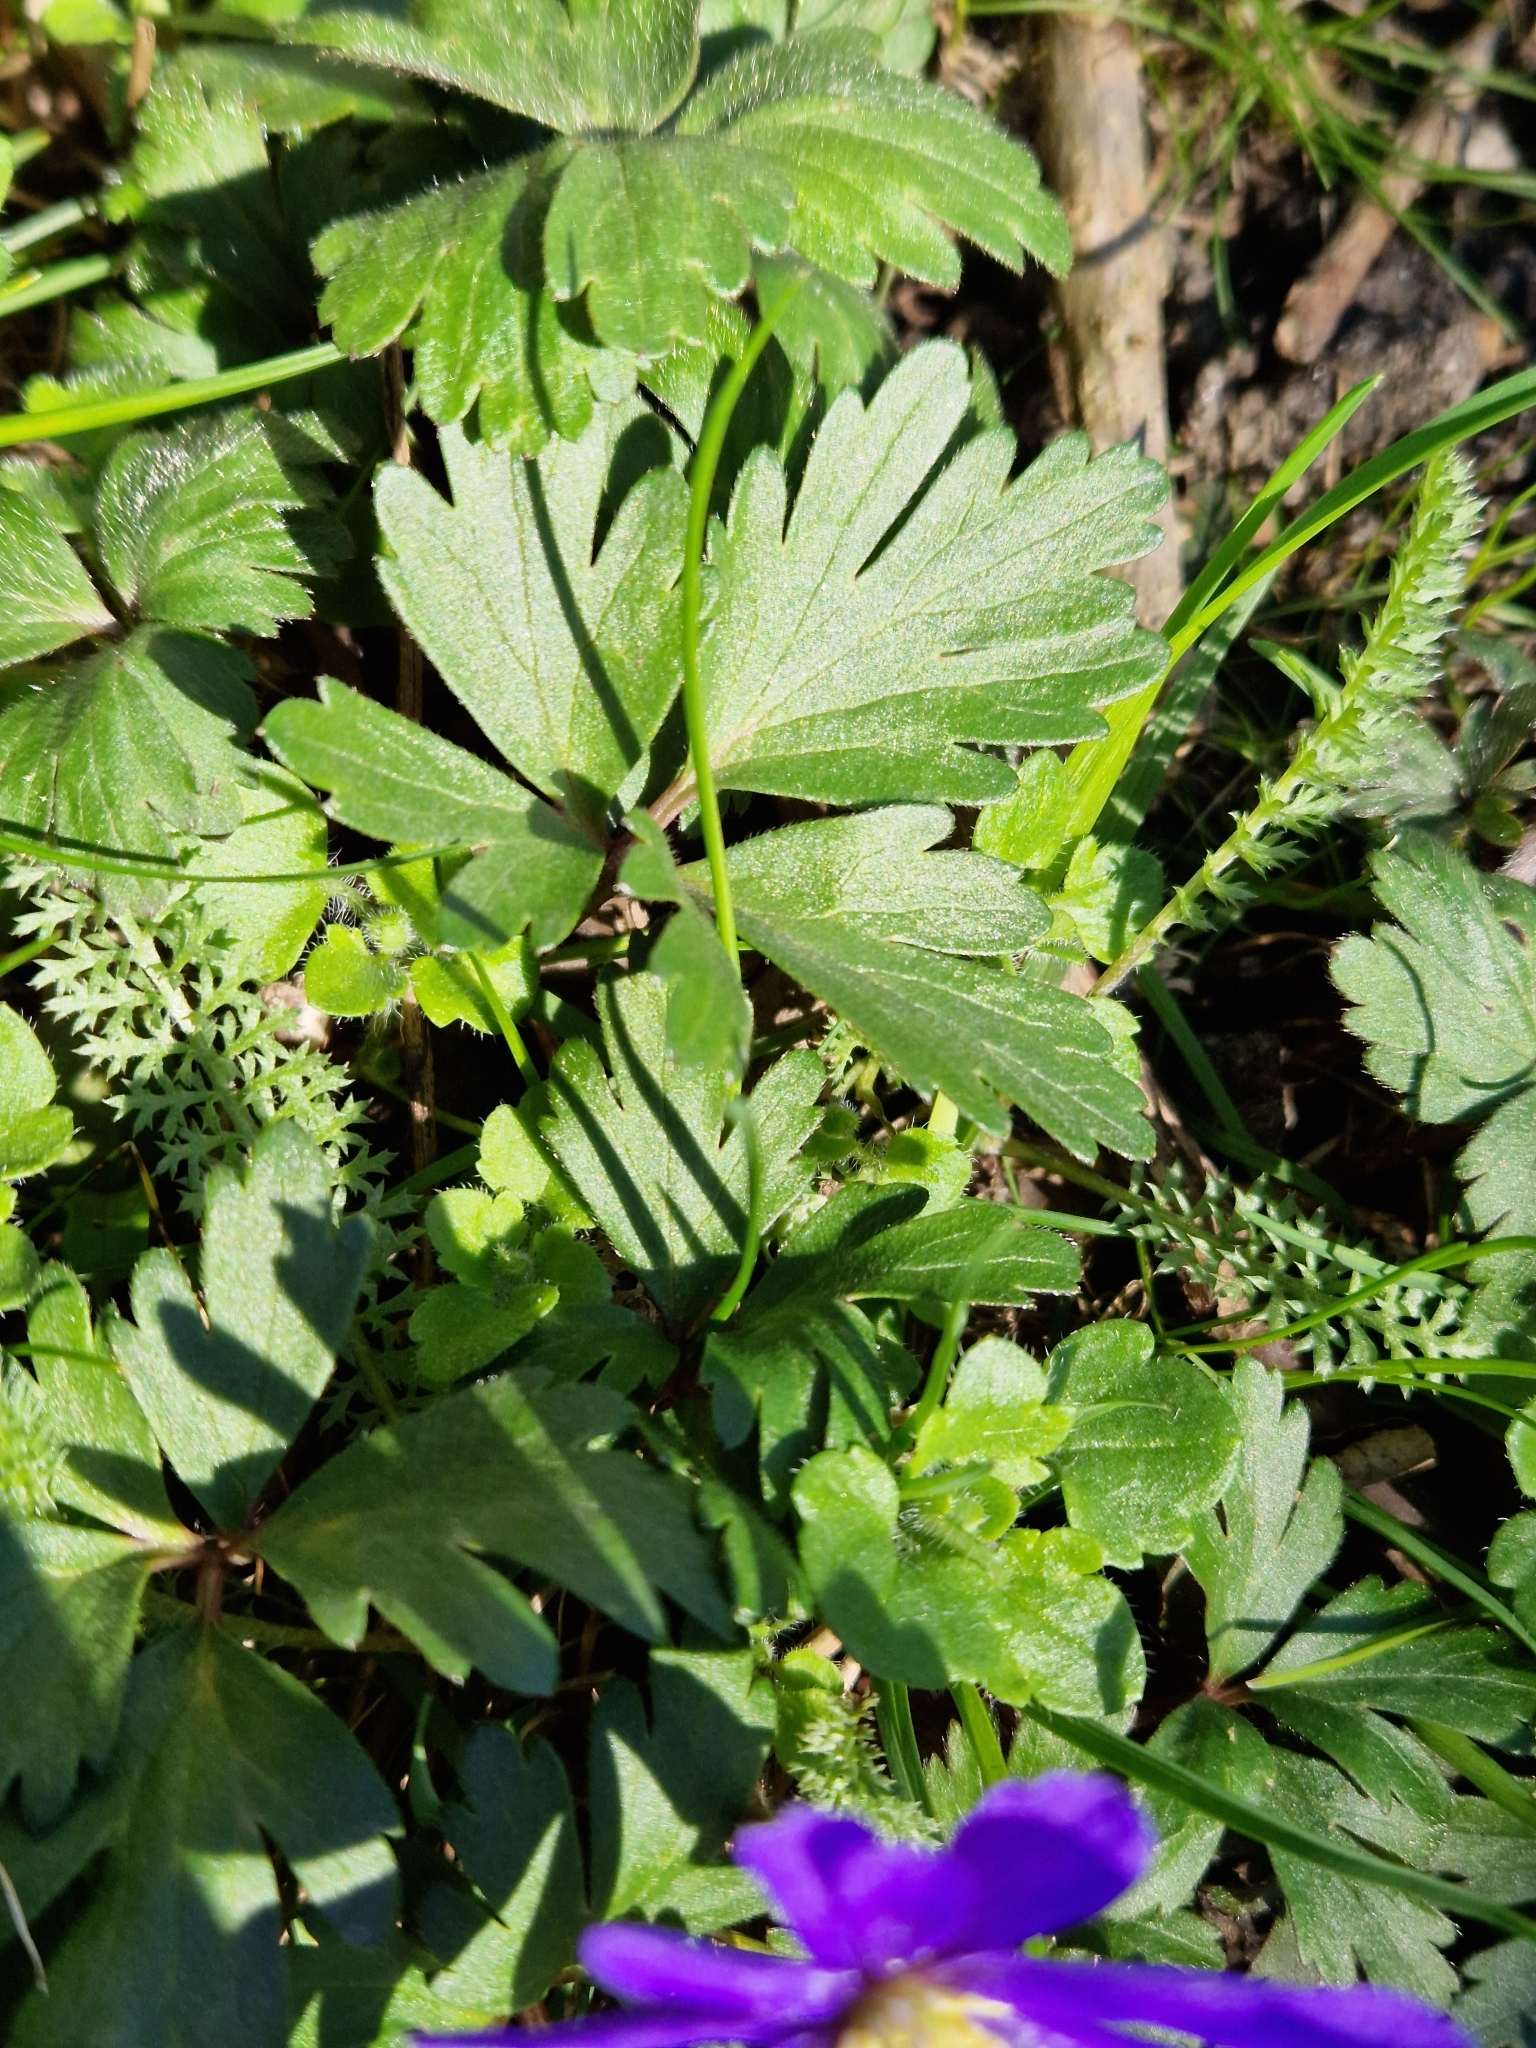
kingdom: Plantae
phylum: Tracheophyta
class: Magnoliopsida
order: Ranunculales
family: Ranunculaceae
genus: Anemone
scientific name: Anemone blanda
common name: Balkan anemone
